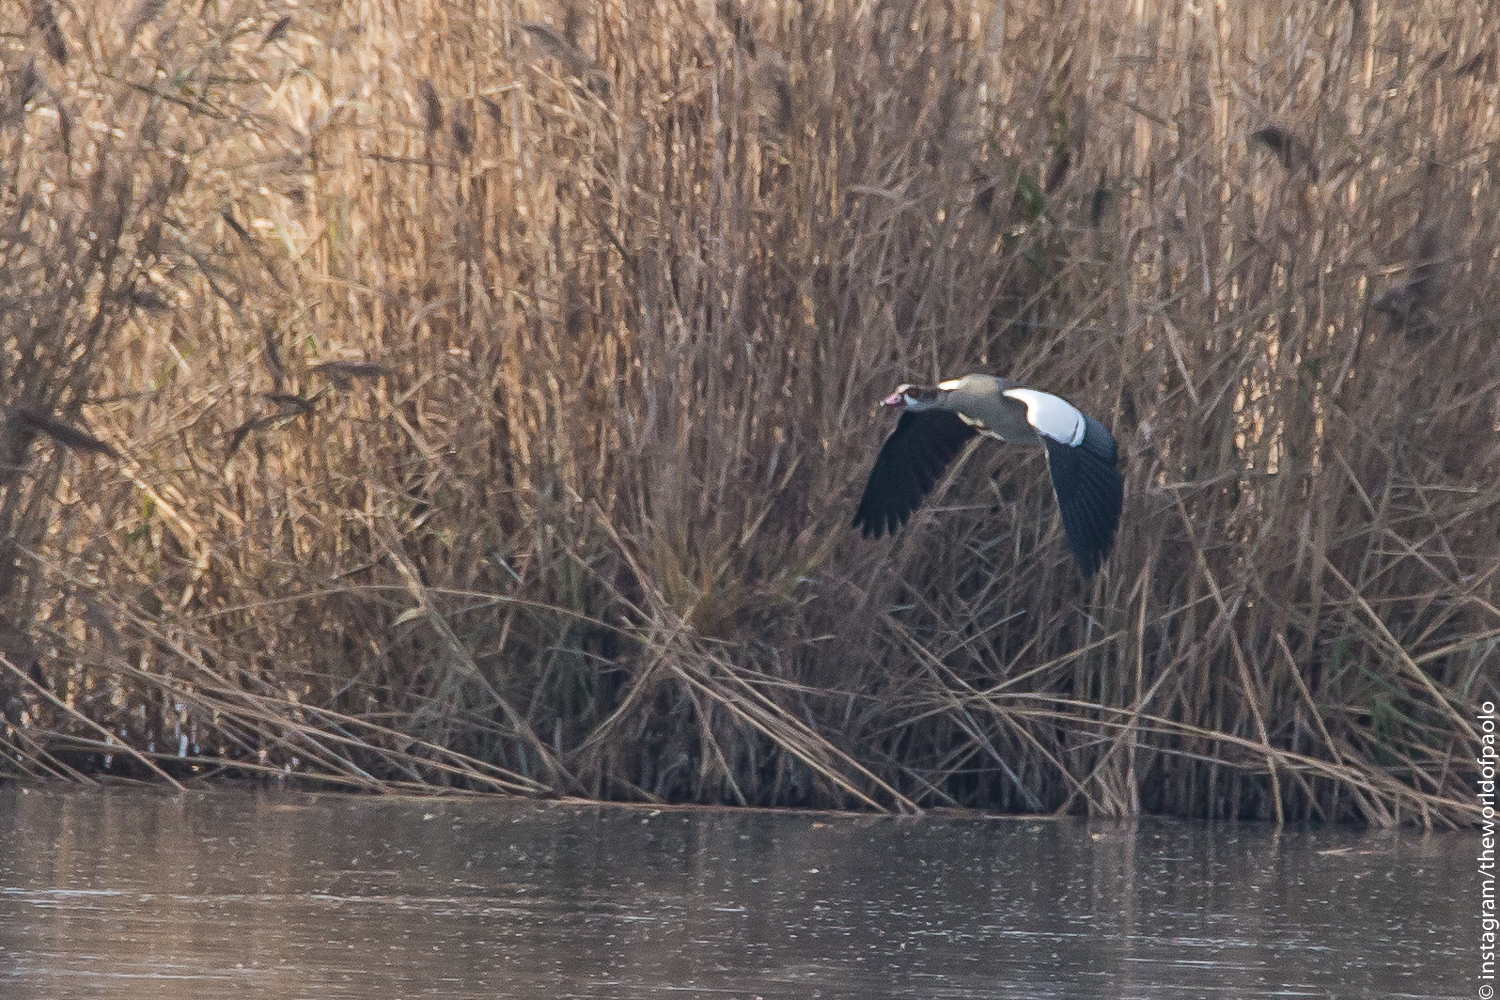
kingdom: Animalia
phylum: Chordata
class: Aves
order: Anseriformes
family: Anatidae
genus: Alopochen
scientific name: Alopochen aegyptiaca
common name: Egyptian goose
